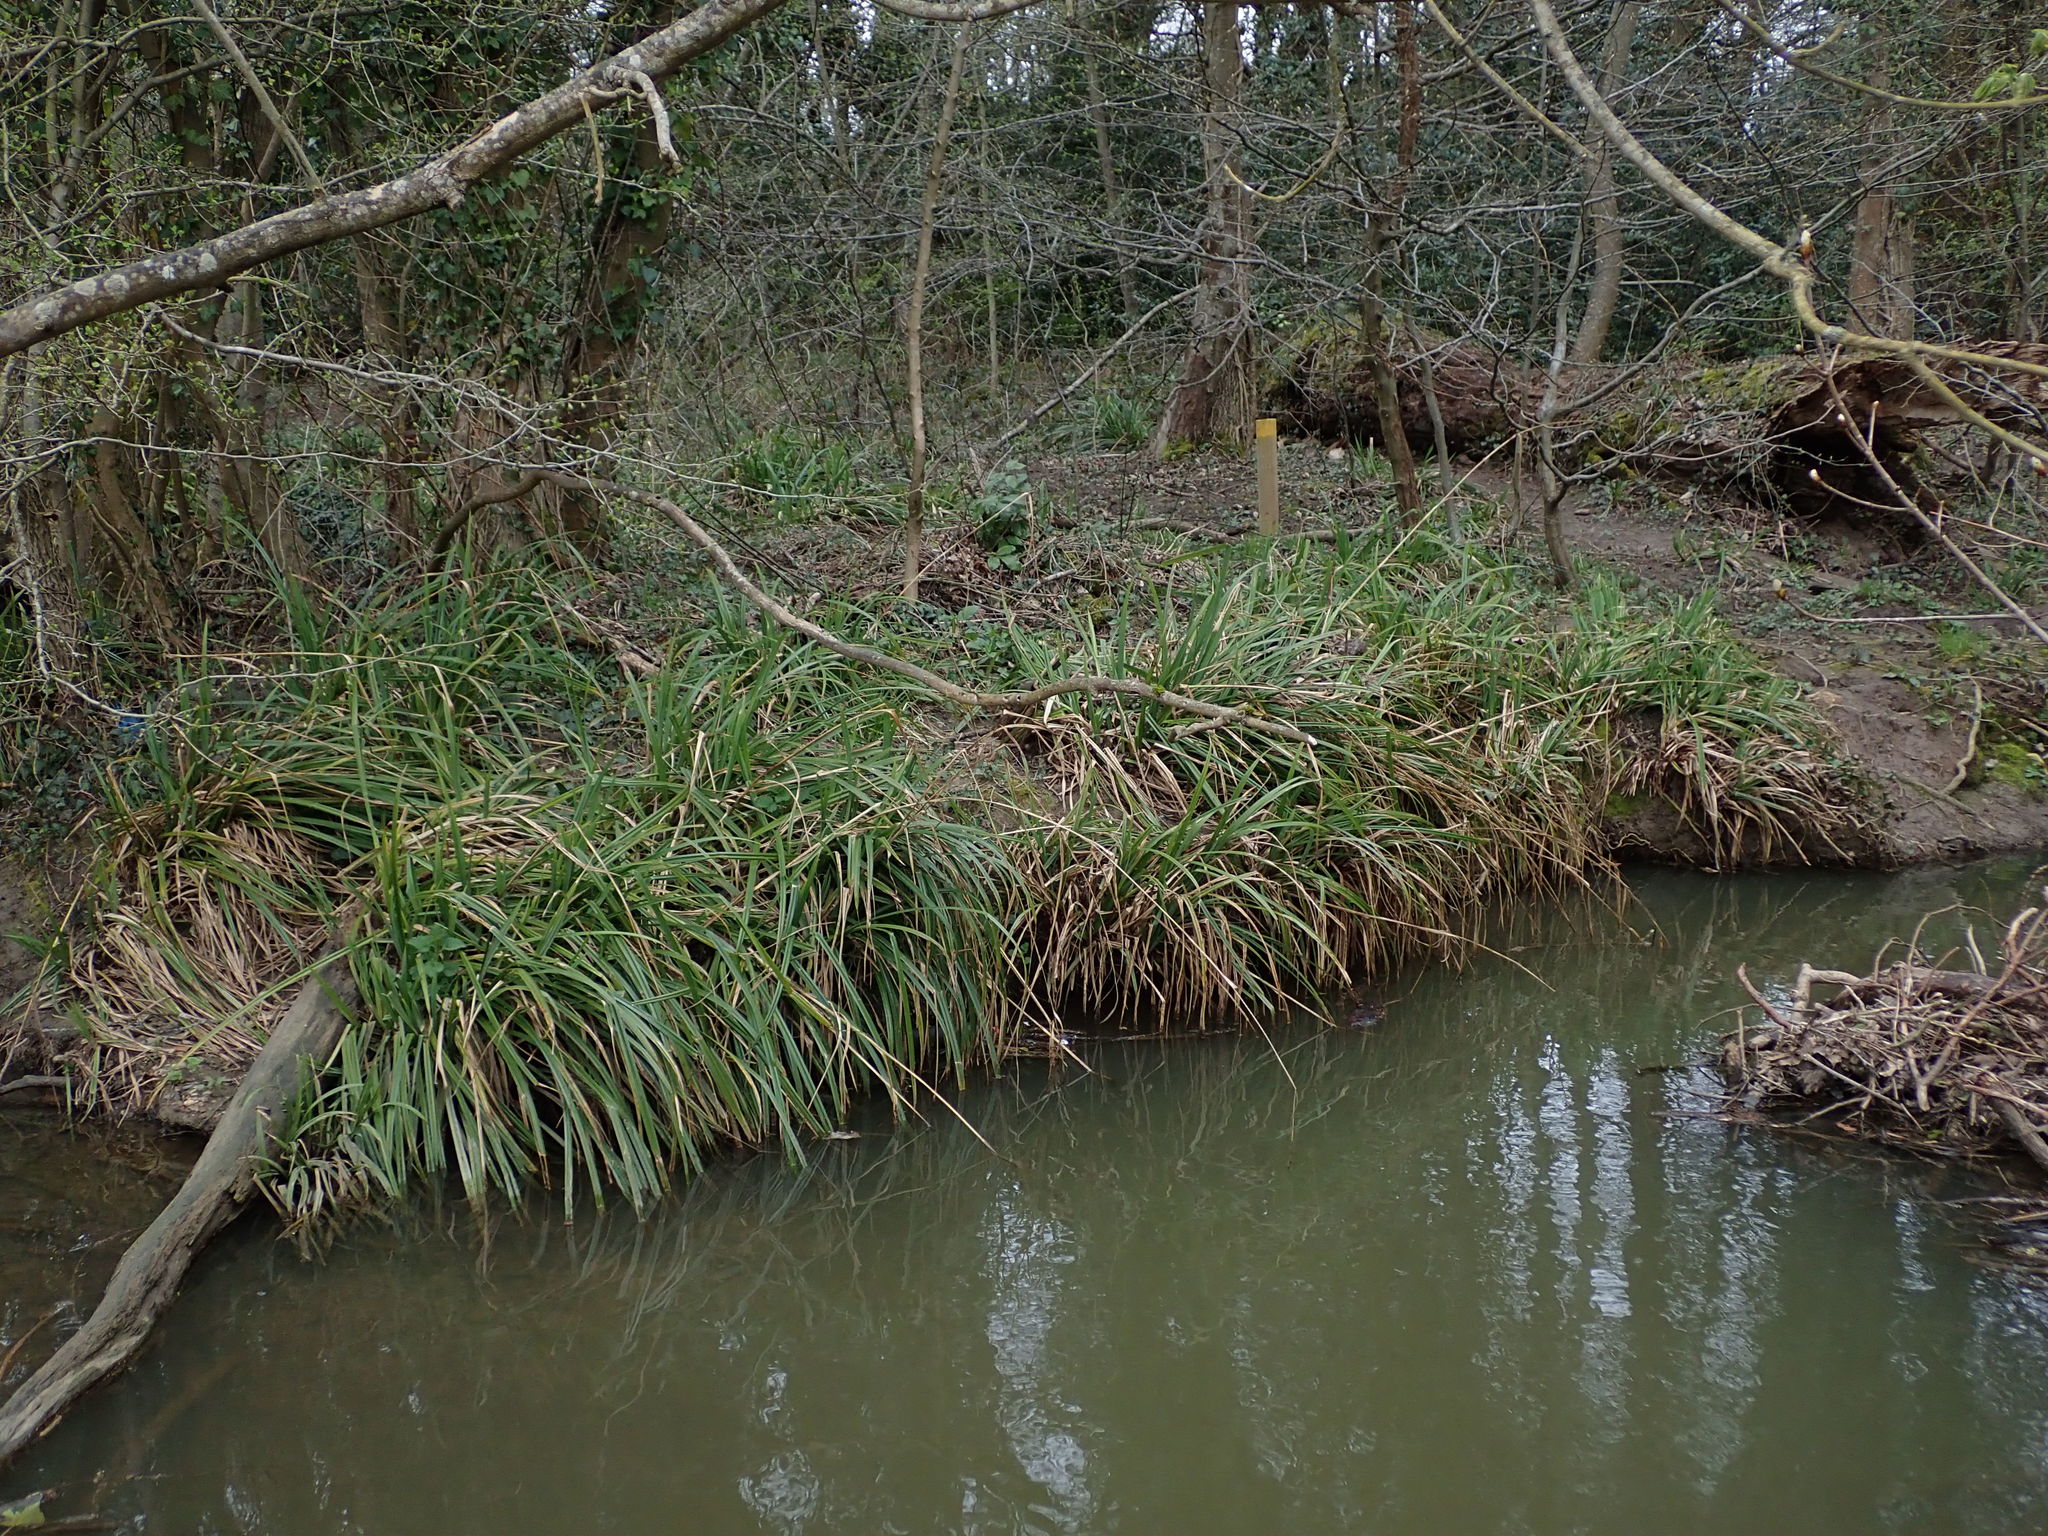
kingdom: Plantae
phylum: Tracheophyta
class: Liliopsida
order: Poales
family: Cyperaceae
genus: Carex
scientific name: Carex pendula
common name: Pendulous sedge
